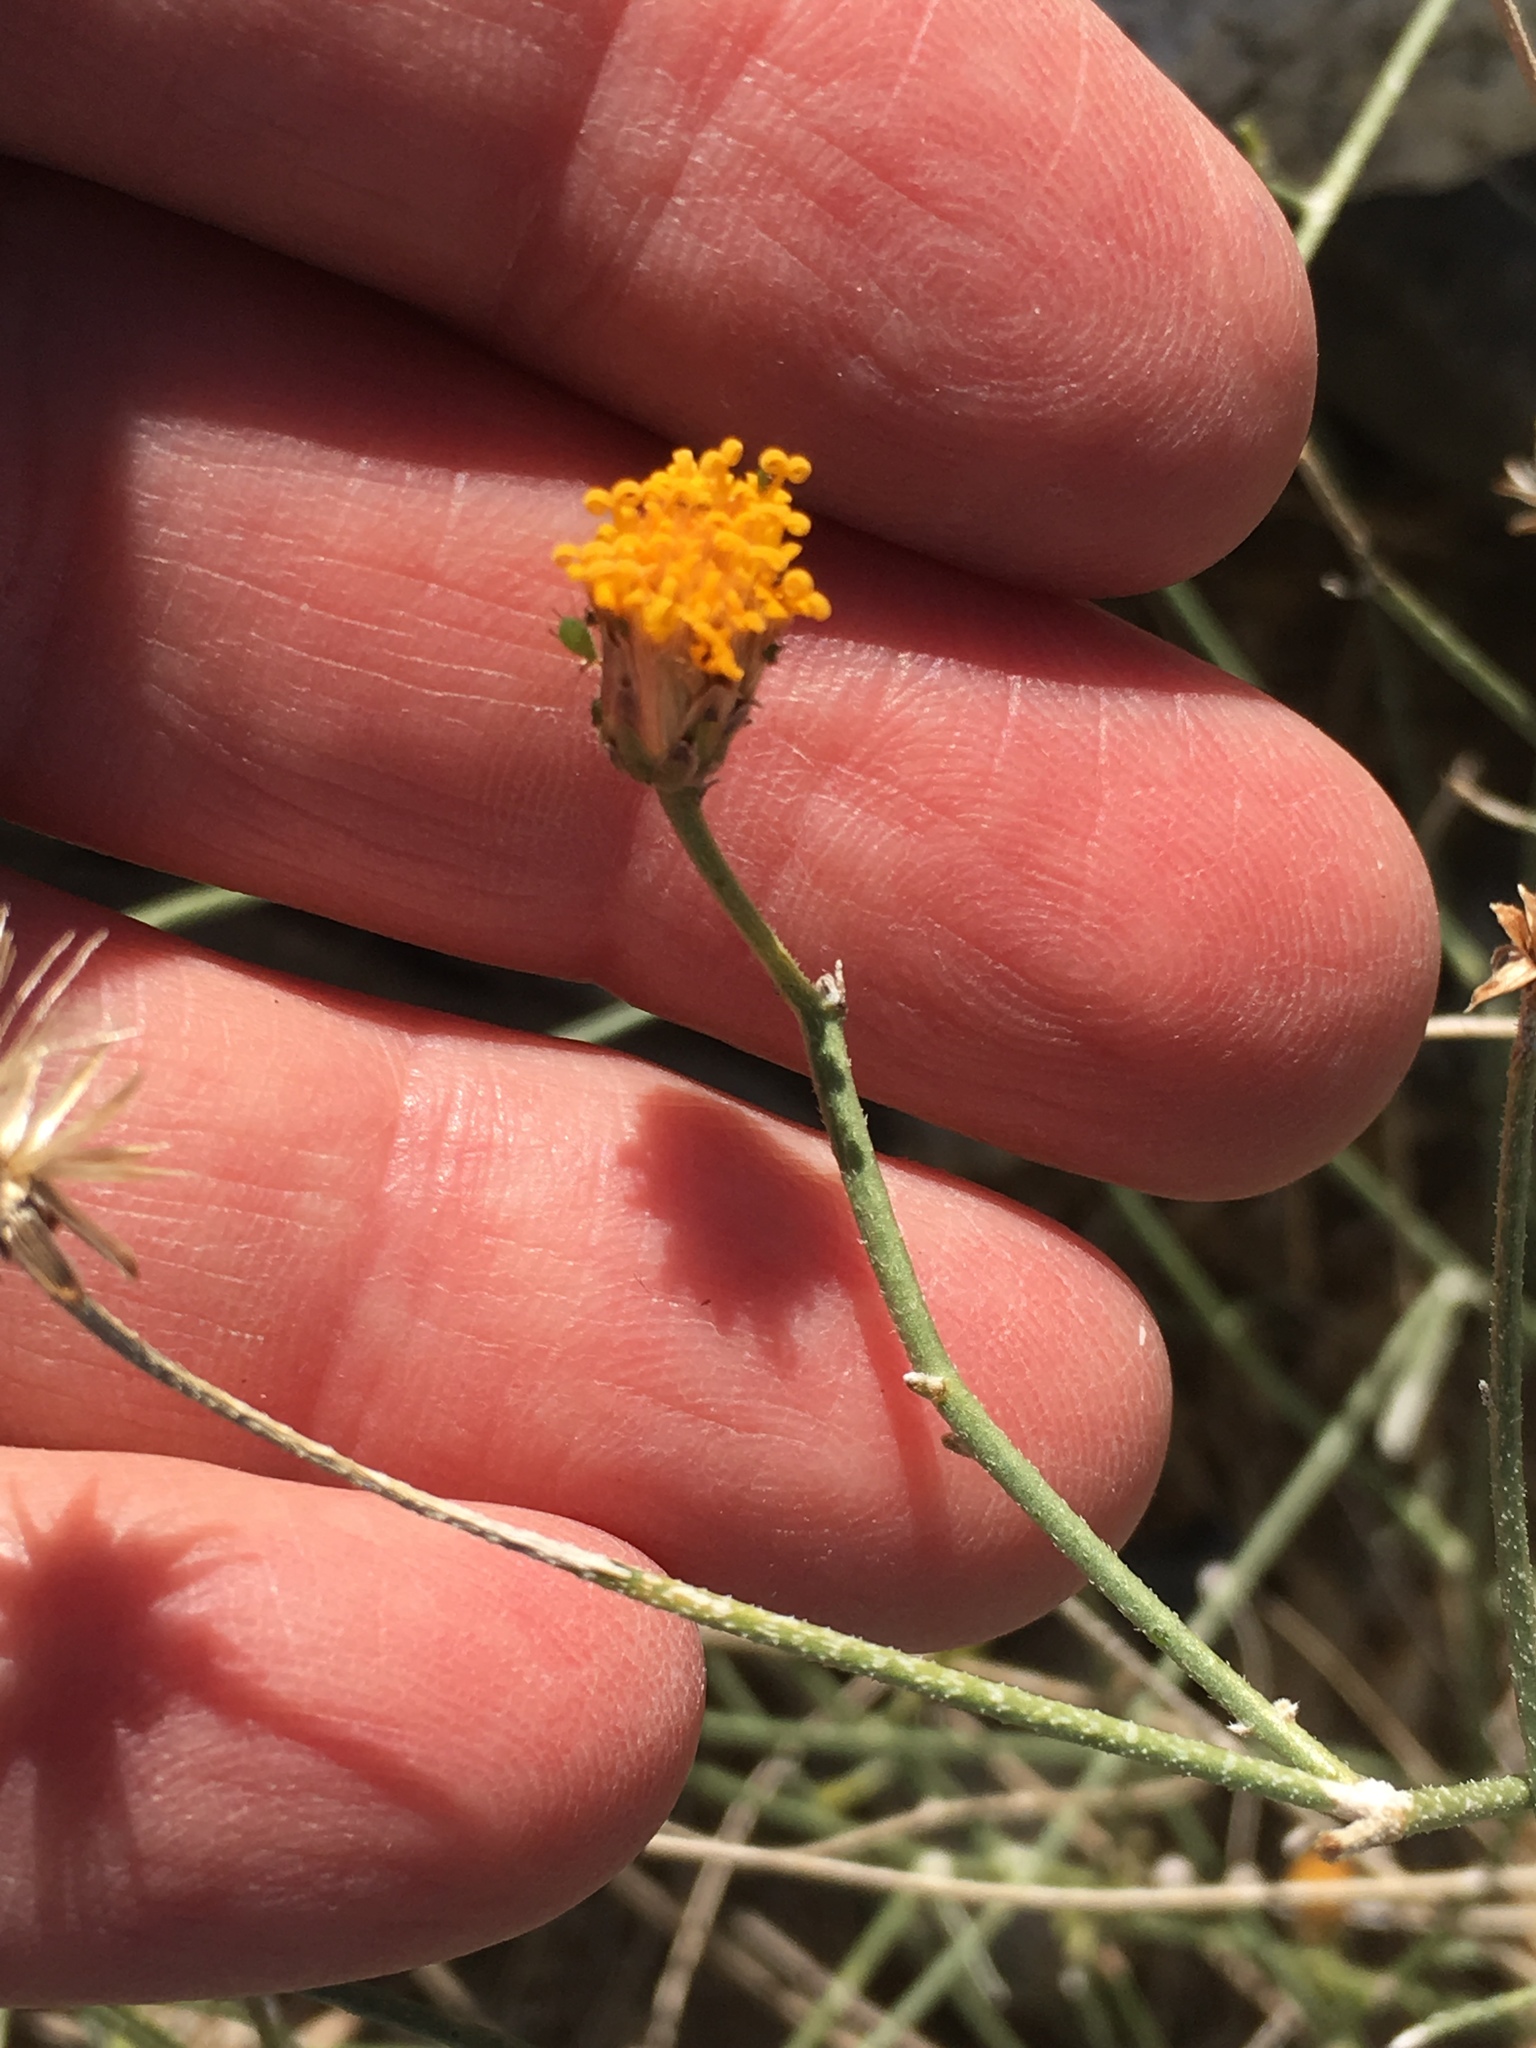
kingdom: Plantae
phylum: Tracheophyta
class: Magnoliopsida
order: Asterales
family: Asteraceae
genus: Bebbia
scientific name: Bebbia juncea
